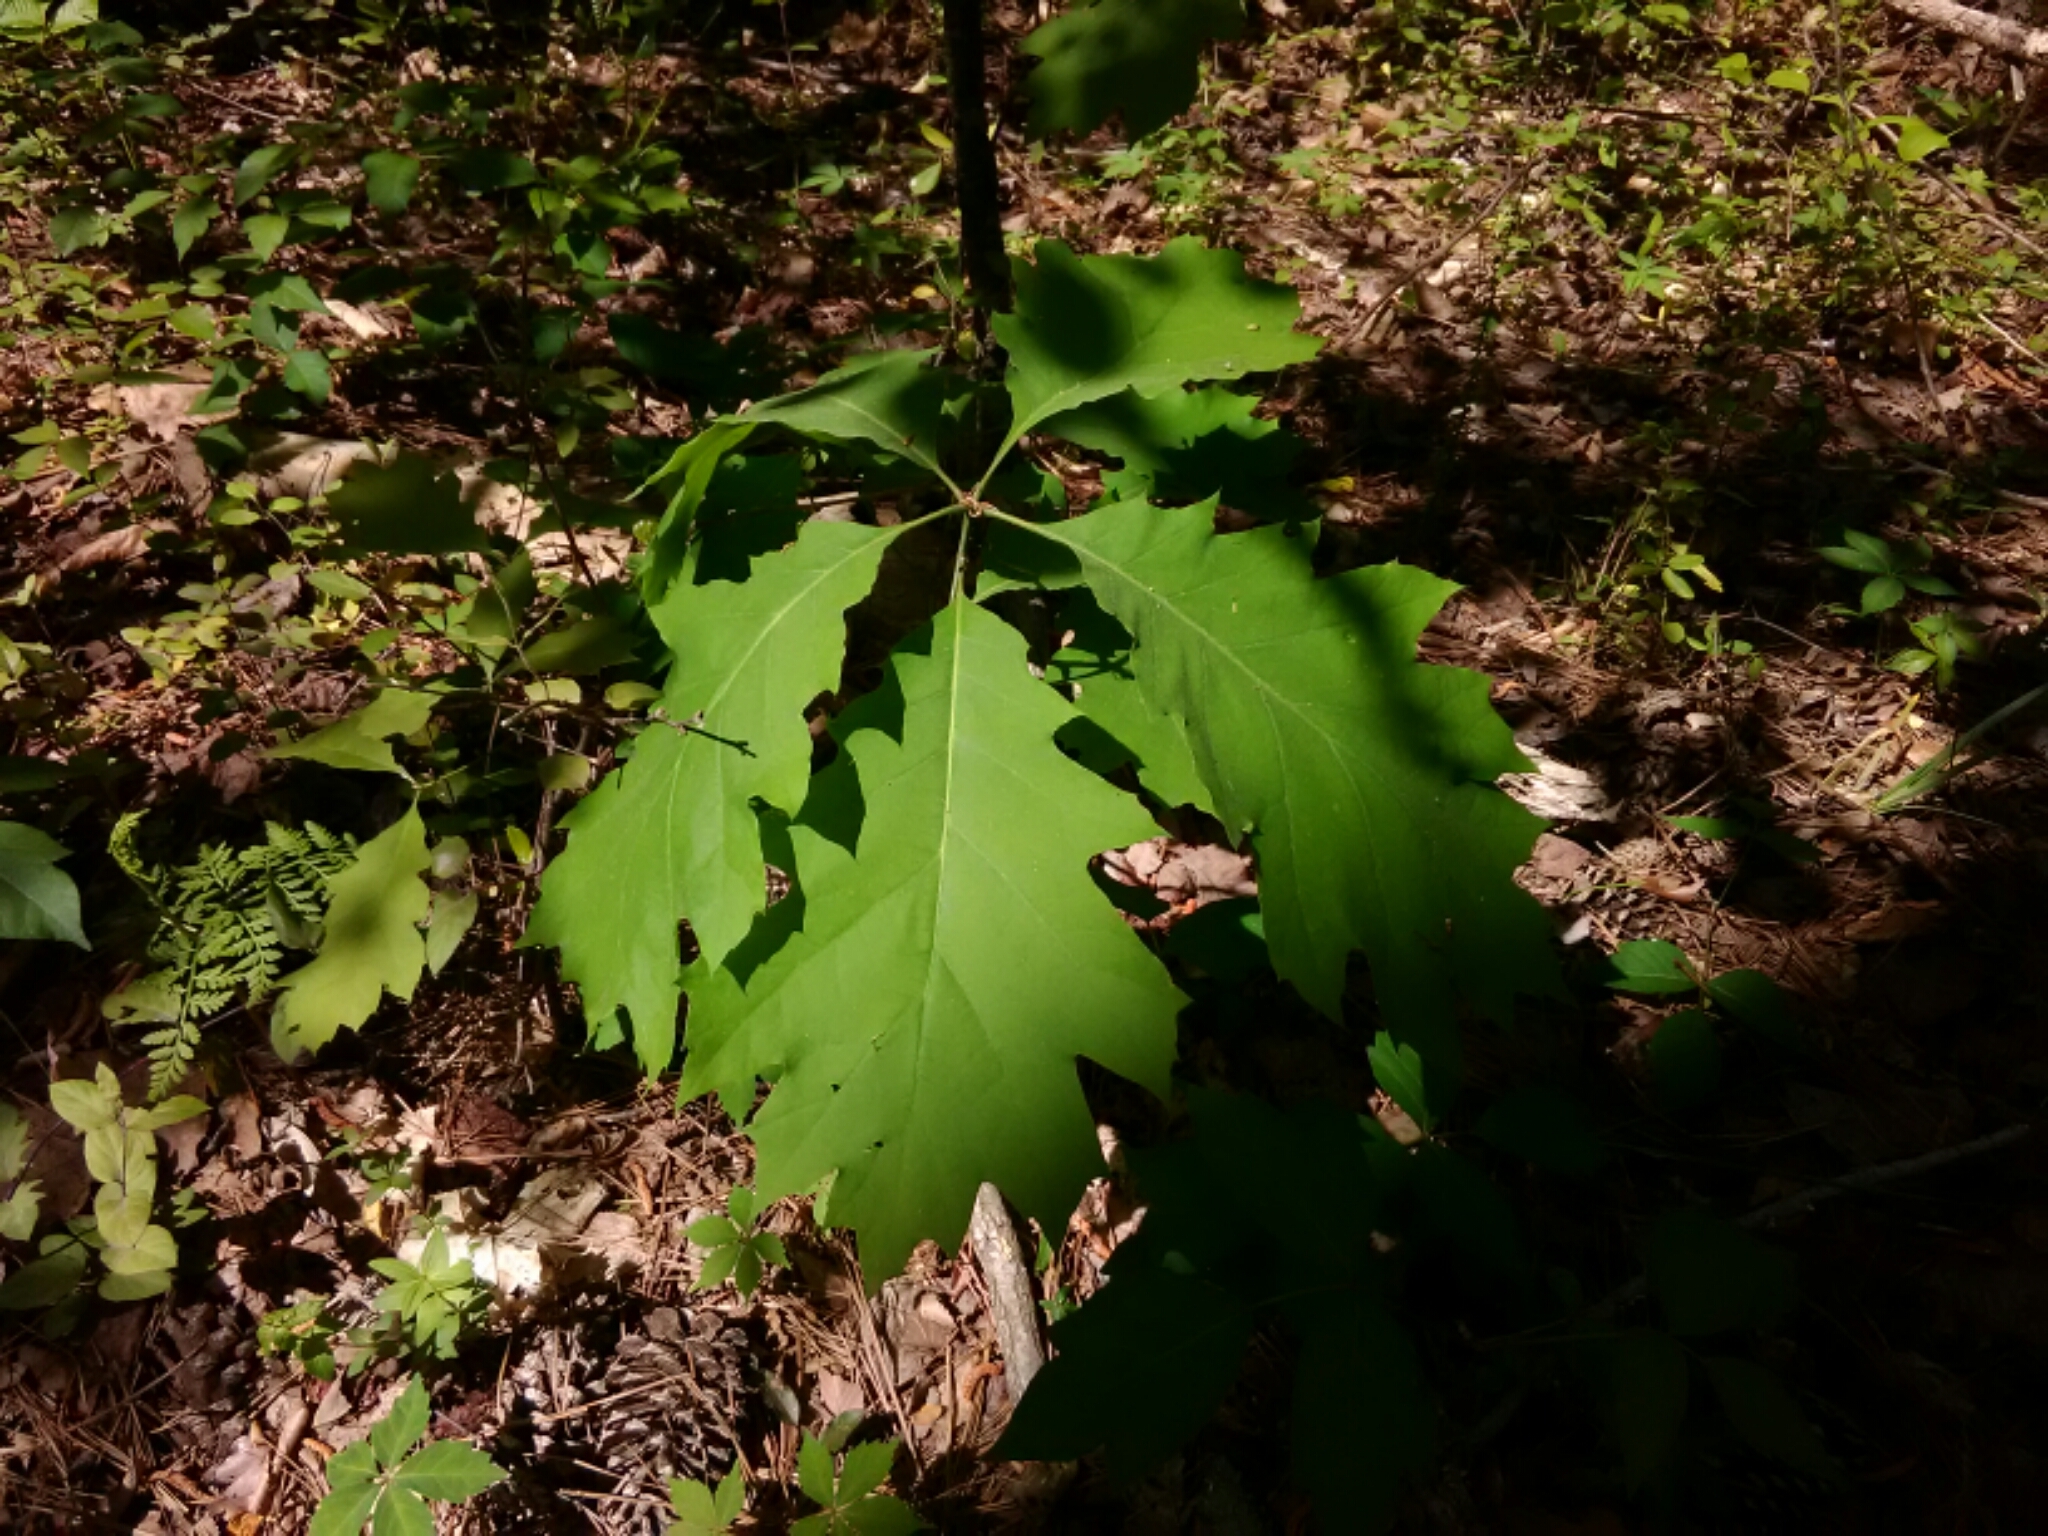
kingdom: Plantae
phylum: Tracheophyta
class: Magnoliopsida
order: Fagales
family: Fagaceae
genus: Quercus
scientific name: Quercus rubra
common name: Red oak
